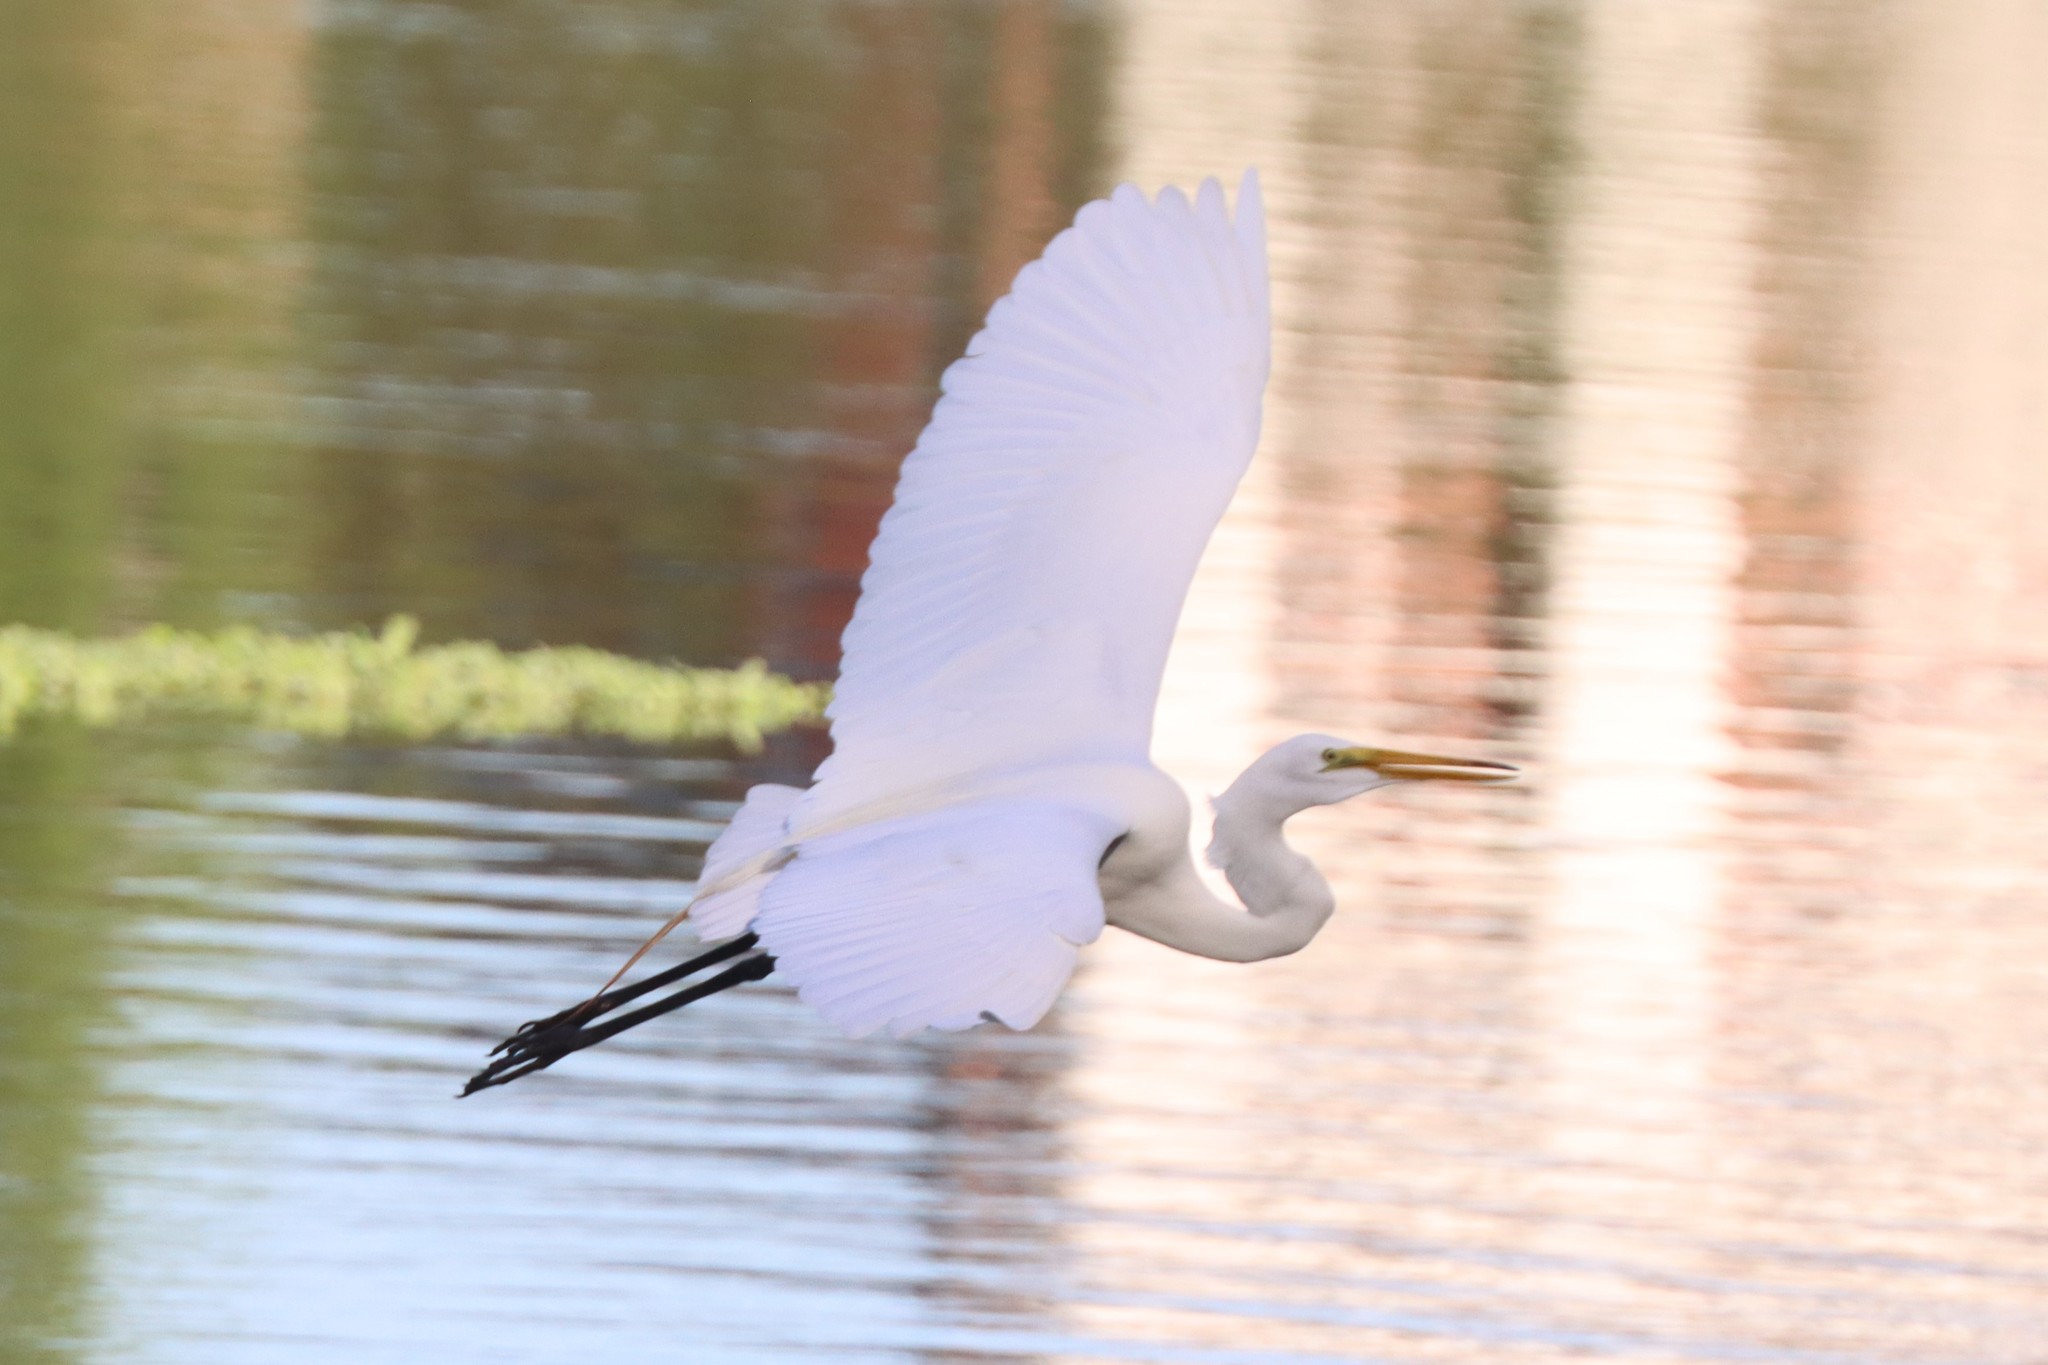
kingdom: Animalia
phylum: Chordata
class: Aves
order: Pelecaniformes
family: Ardeidae
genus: Ardea
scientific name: Ardea alba
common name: Great egret
